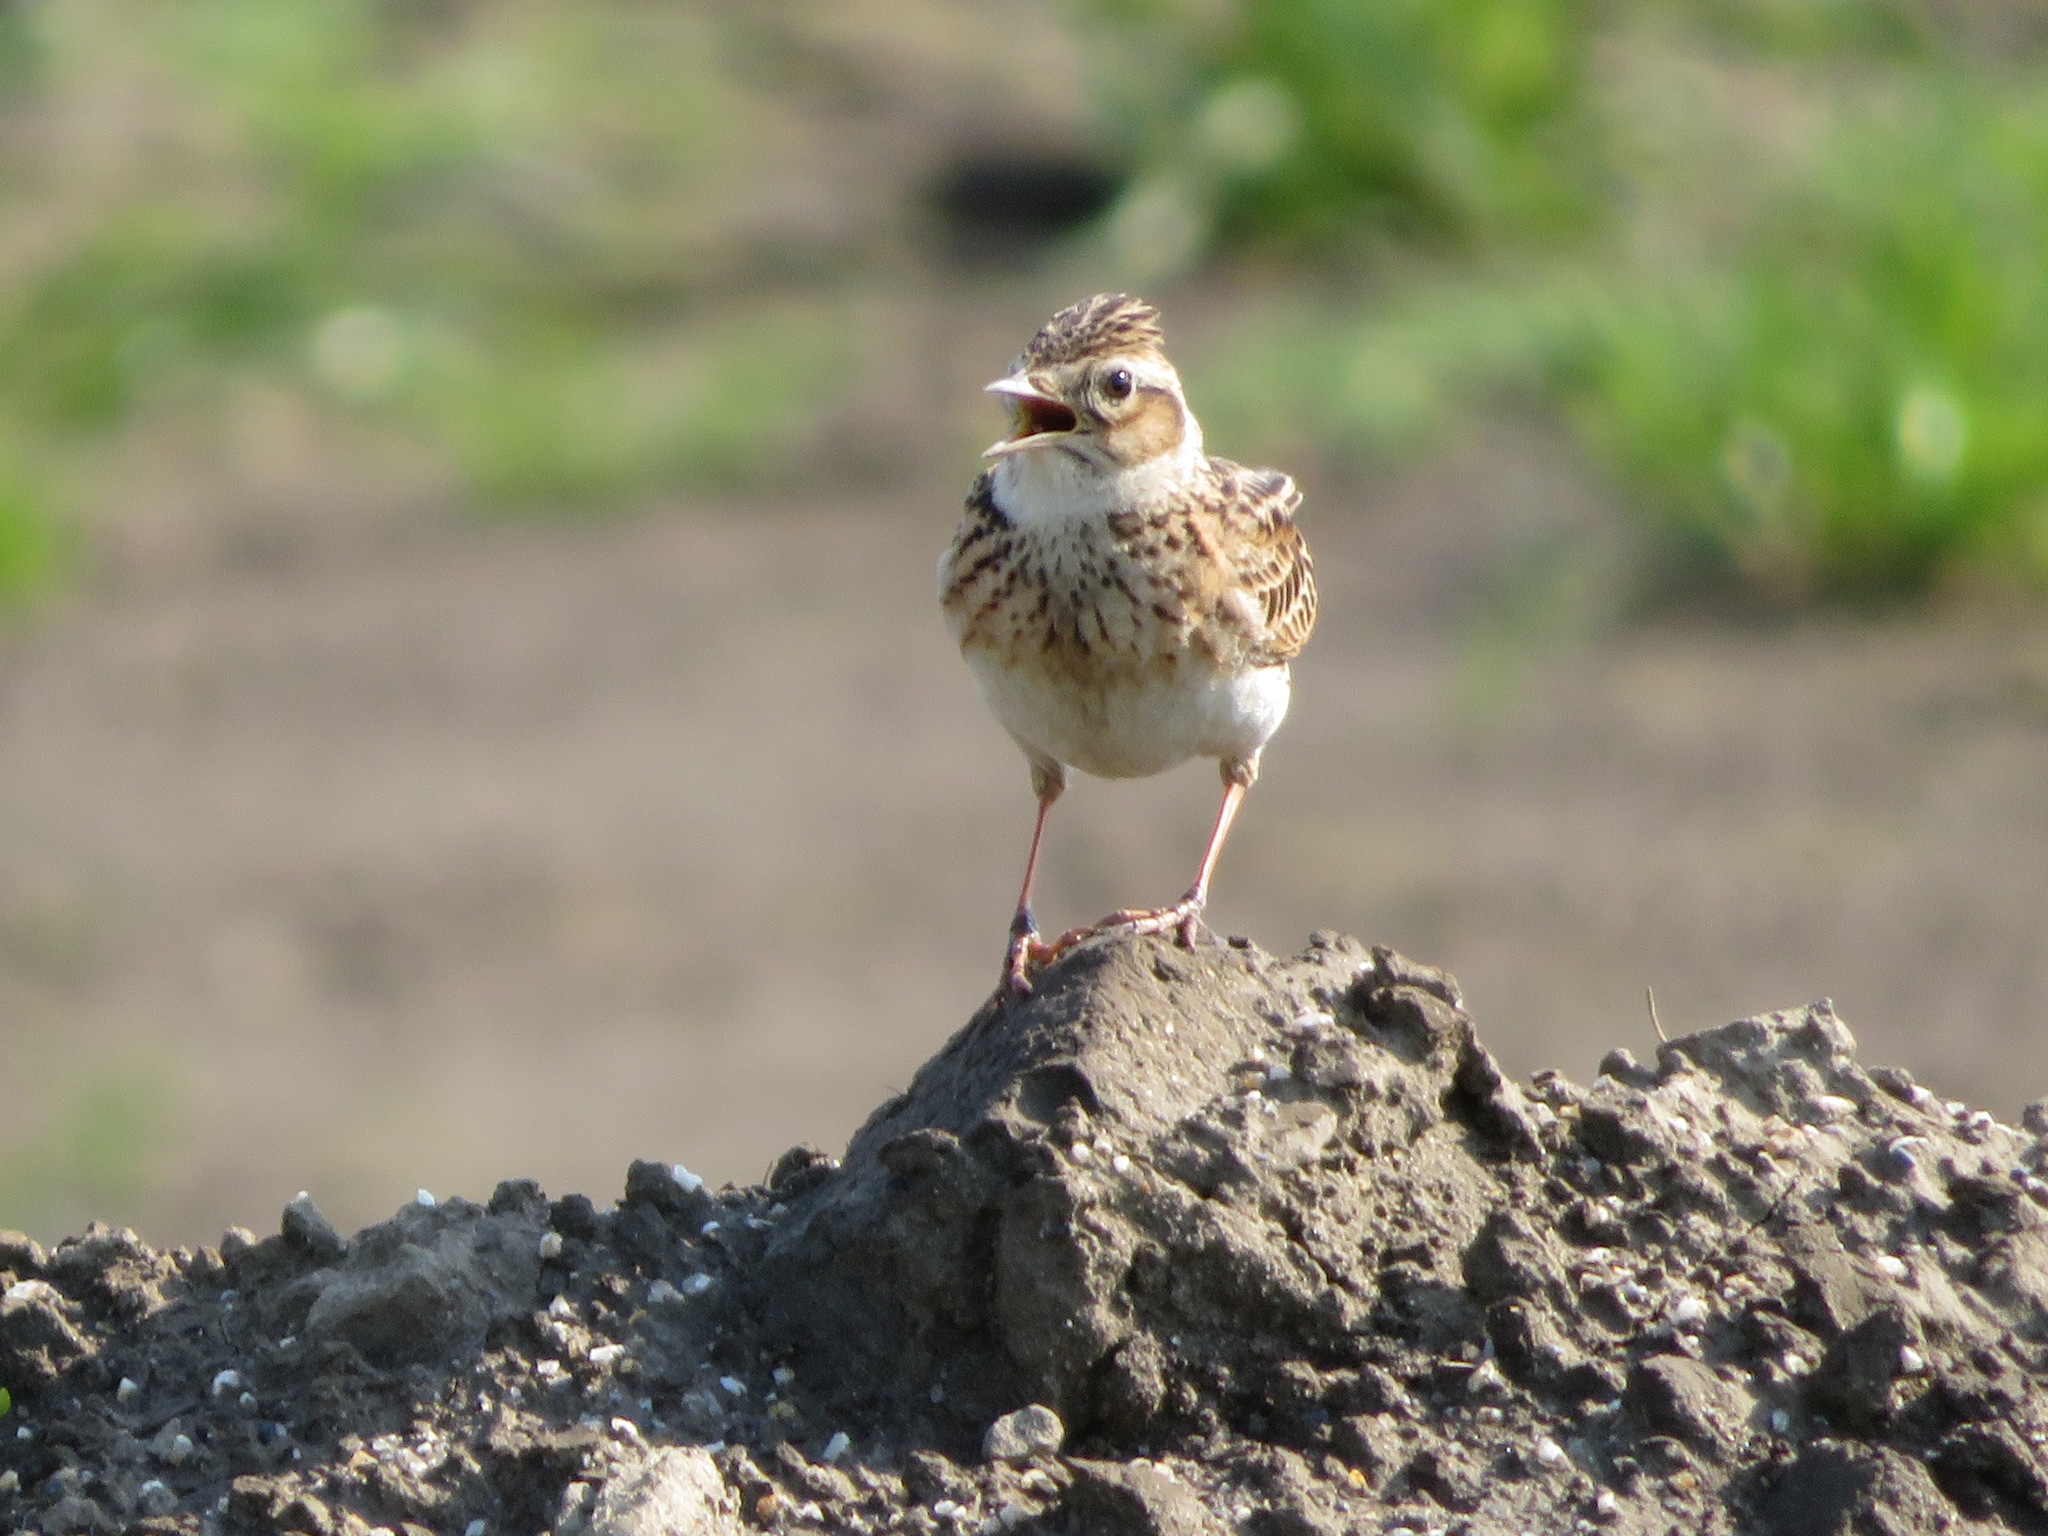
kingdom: Animalia
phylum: Chordata
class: Aves
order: Passeriformes
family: Alaudidae
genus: Alauda
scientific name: Alauda arvensis
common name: Eurasian skylark
